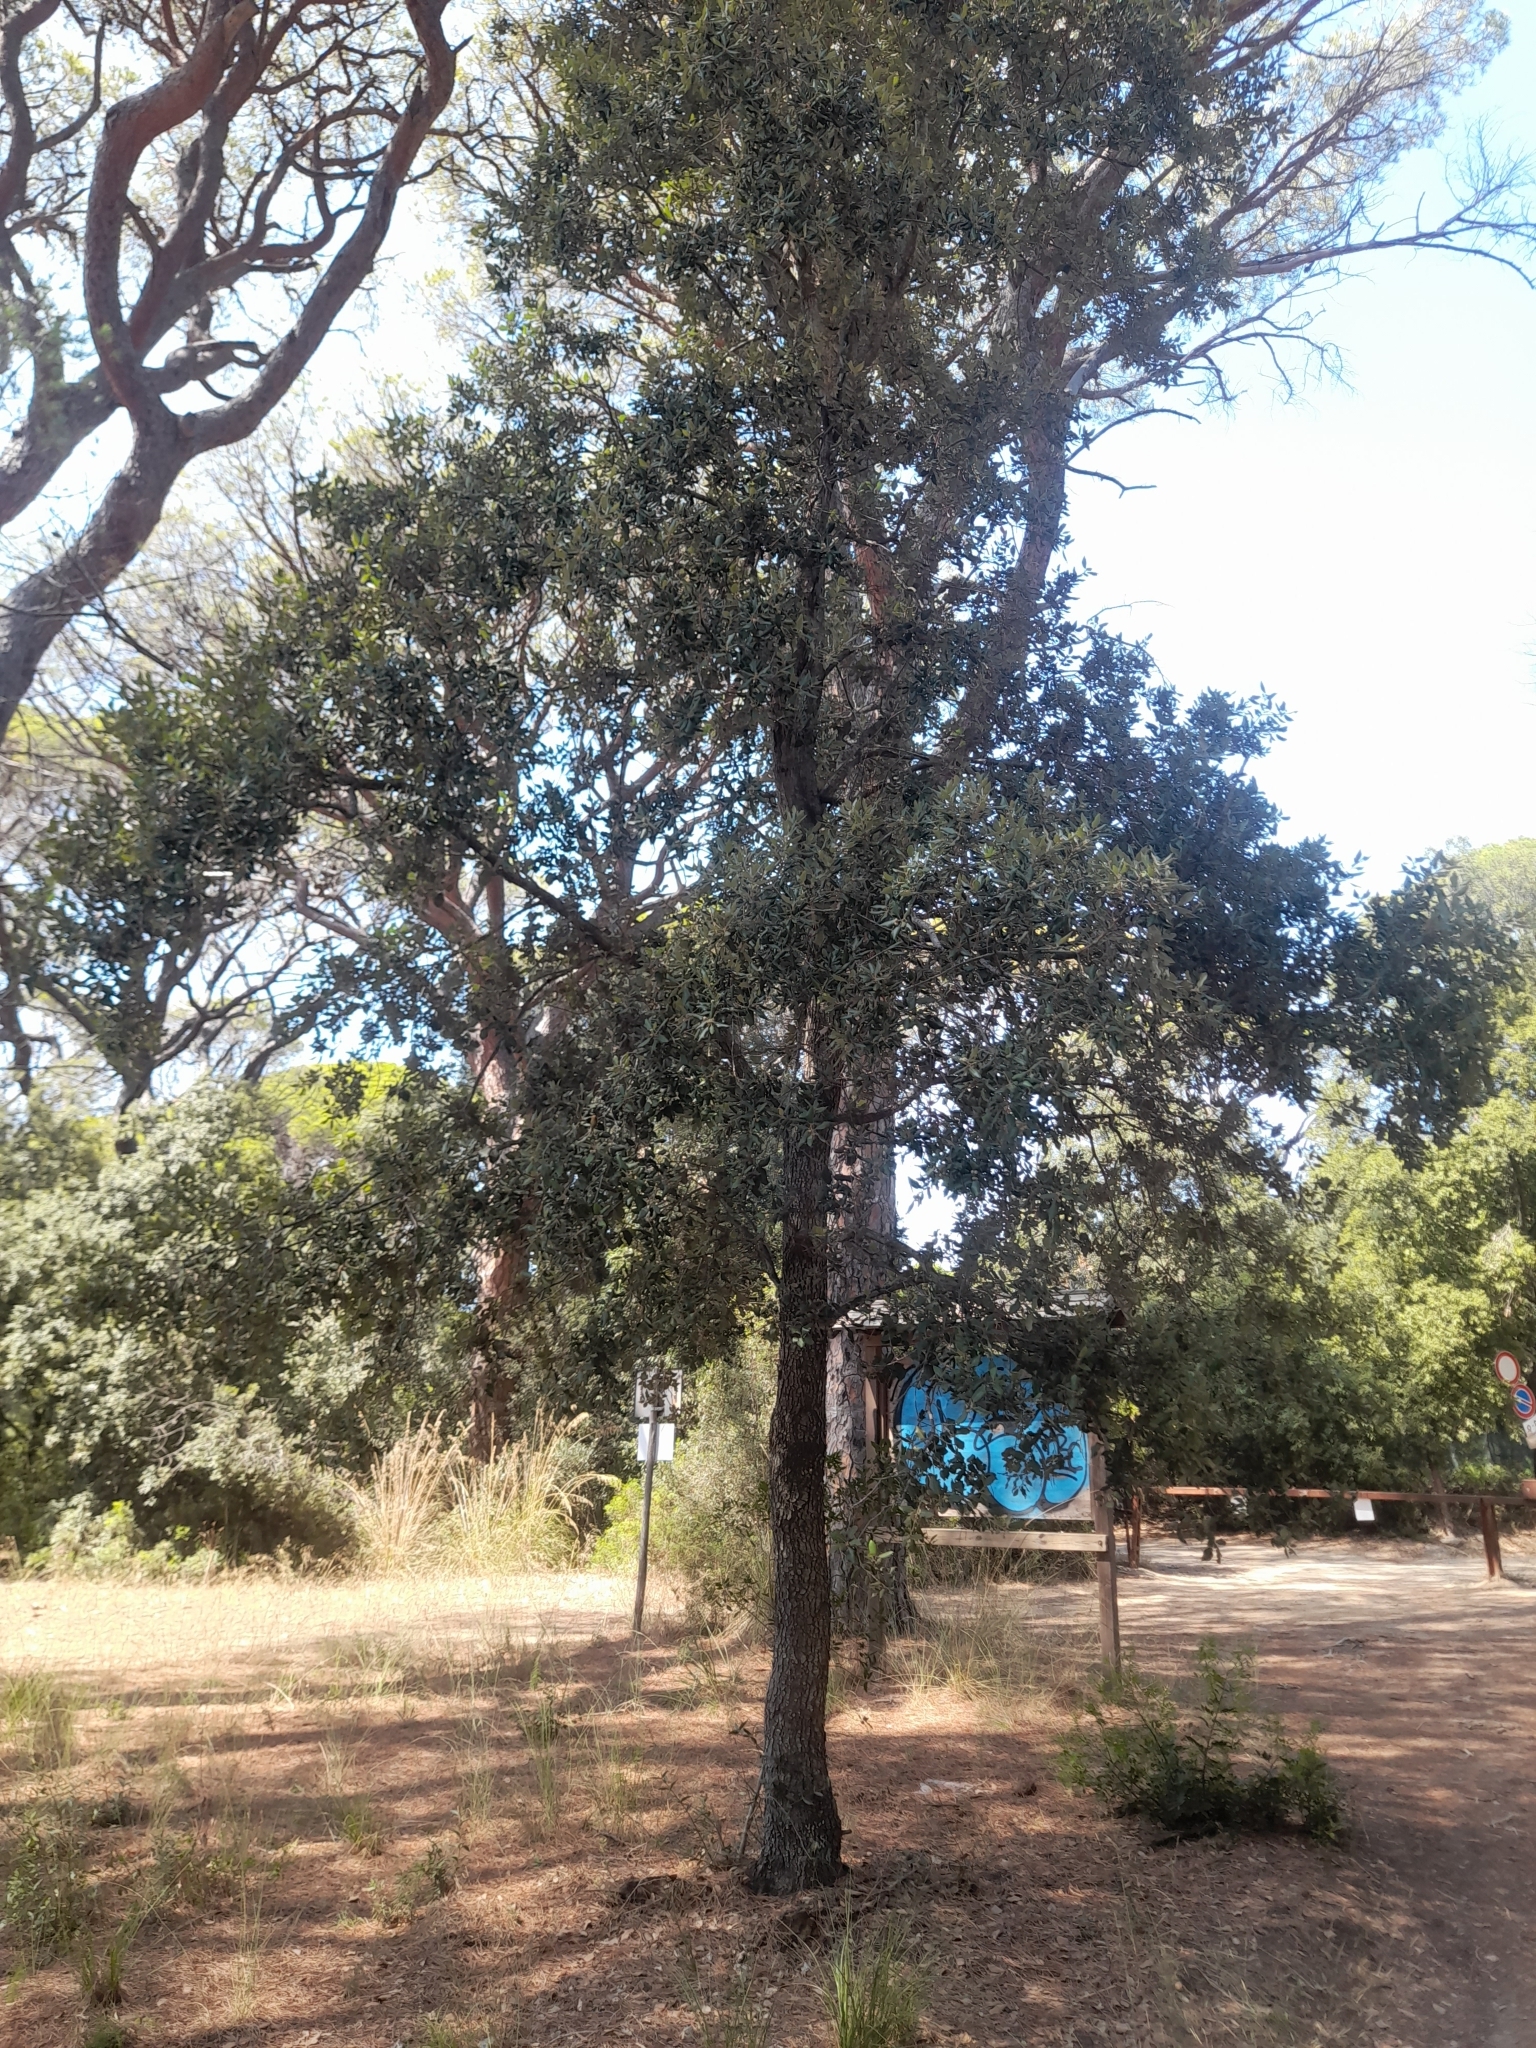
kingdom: Plantae
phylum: Tracheophyta
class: Magnoliopsida
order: Fagales
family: Fagaceae
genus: Quercus
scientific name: Quercus ilex
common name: Evergreen oak
